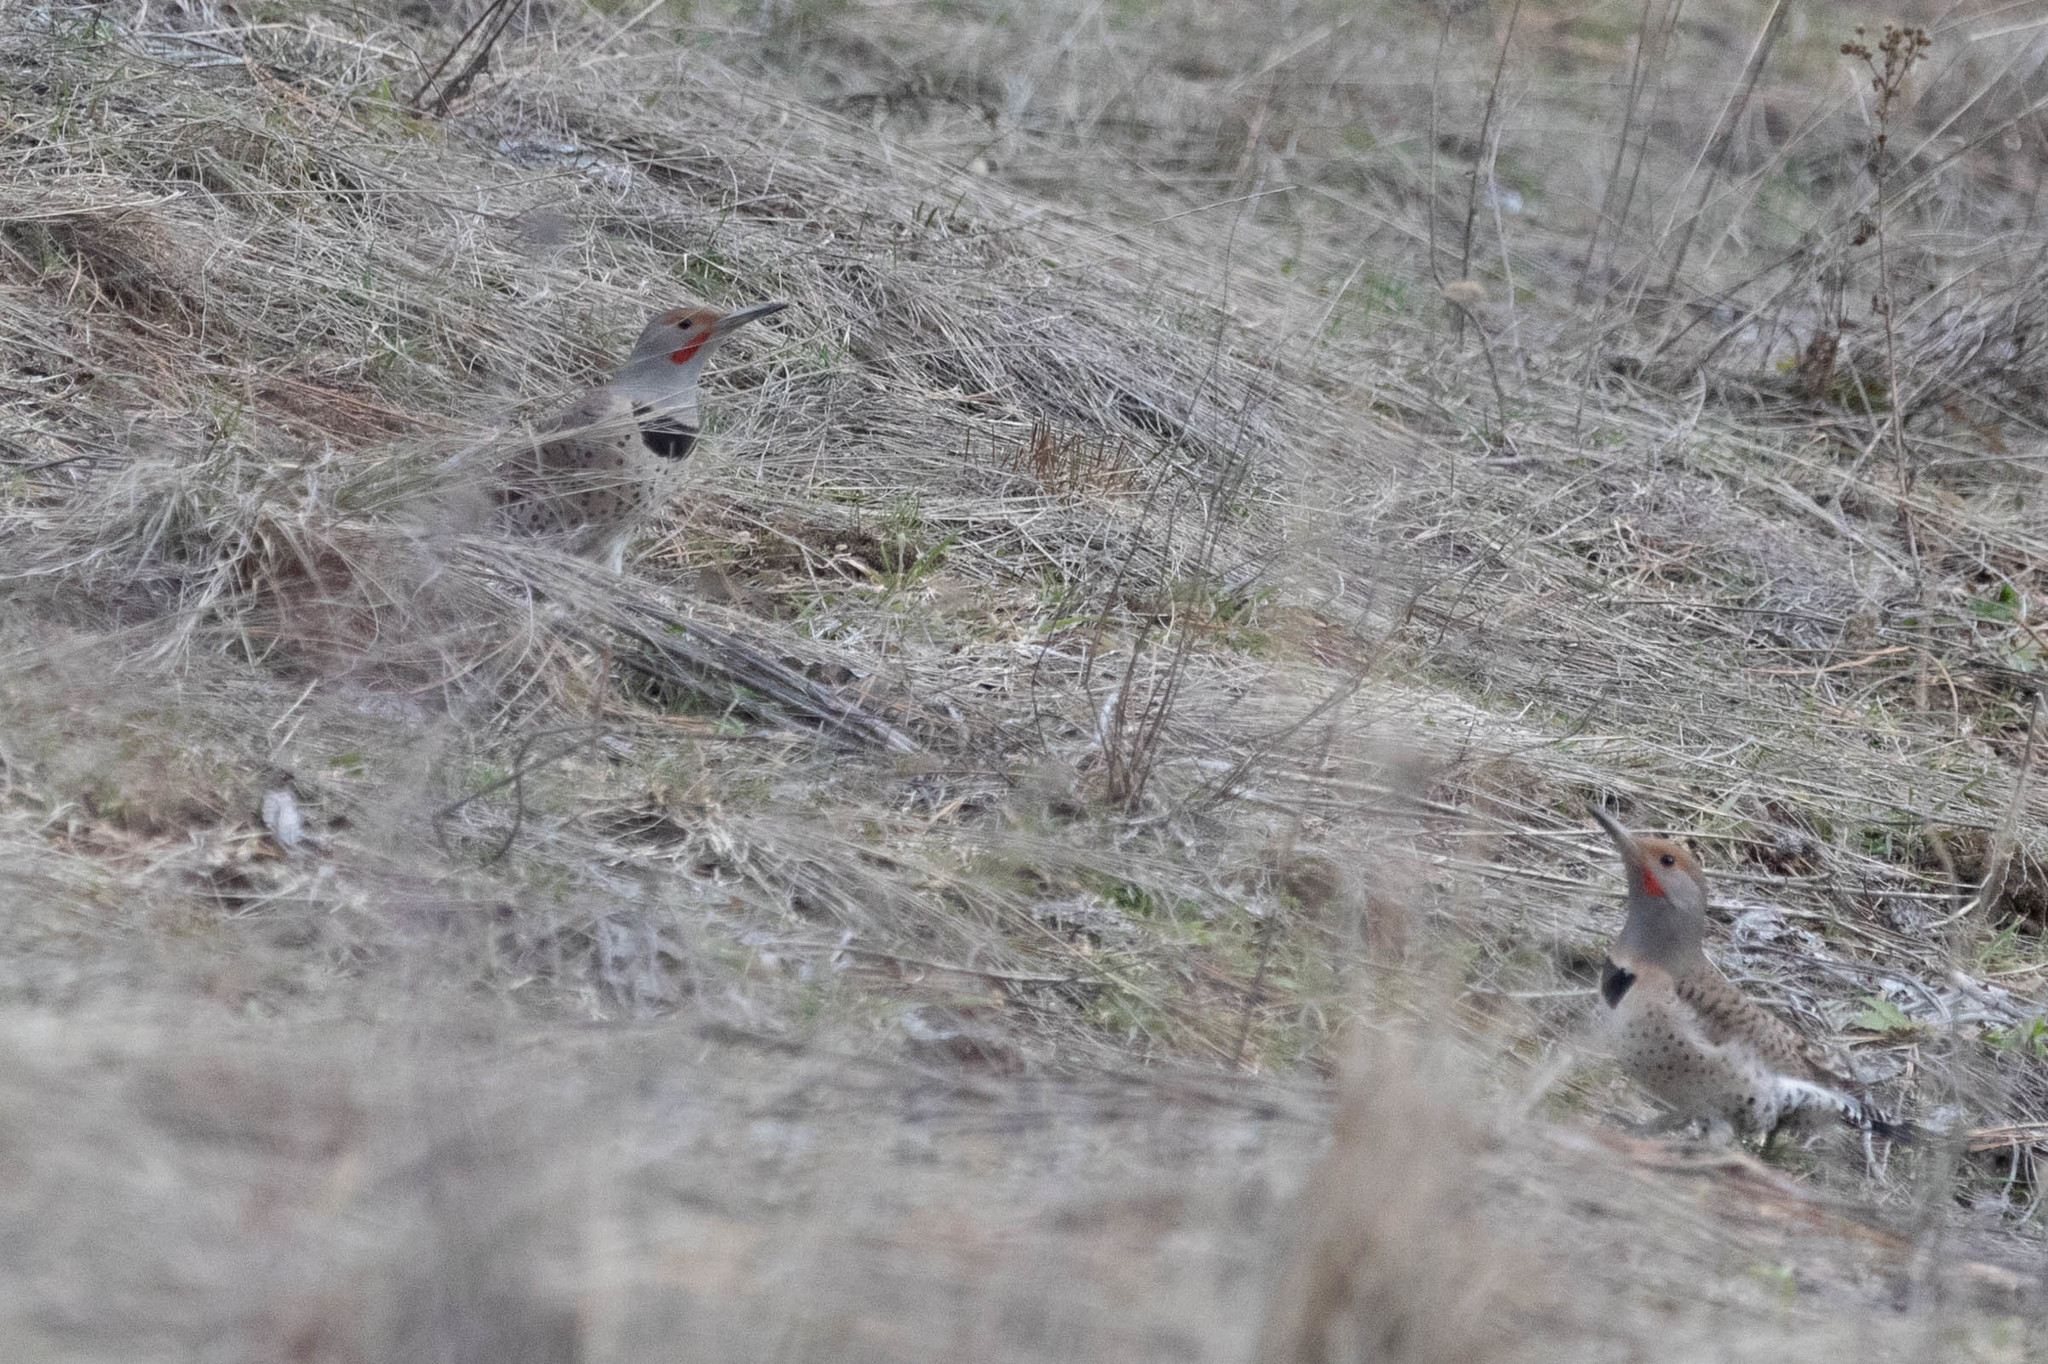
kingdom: Animalia
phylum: Chordata
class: Aves
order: Piciformes
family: Picidae
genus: Colaptes
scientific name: Colaptes auratus
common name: Northern flicker
